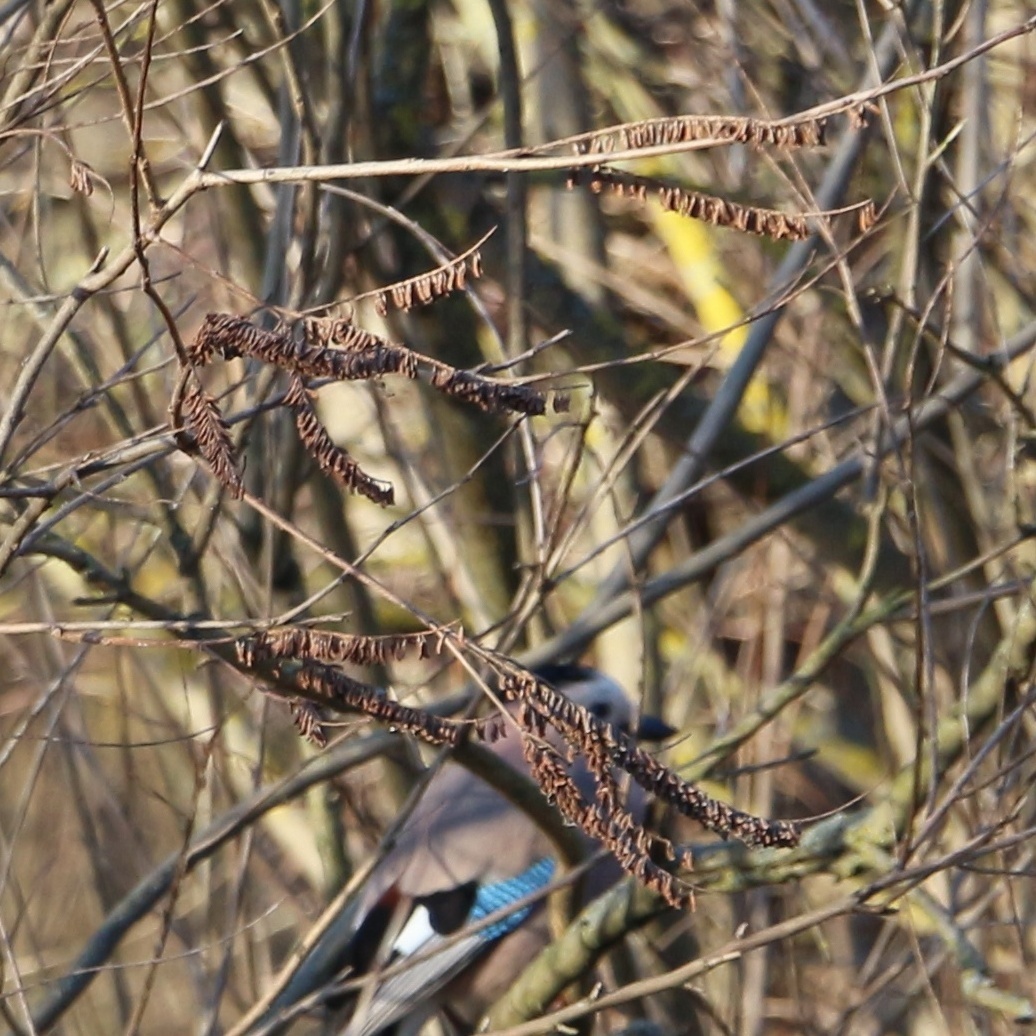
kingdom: Plantae
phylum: Tracheophyta
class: Magnoliopsida
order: Fabales
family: Fabaceae
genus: Amorpha
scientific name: Amorpha fruticosa
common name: False indigo
